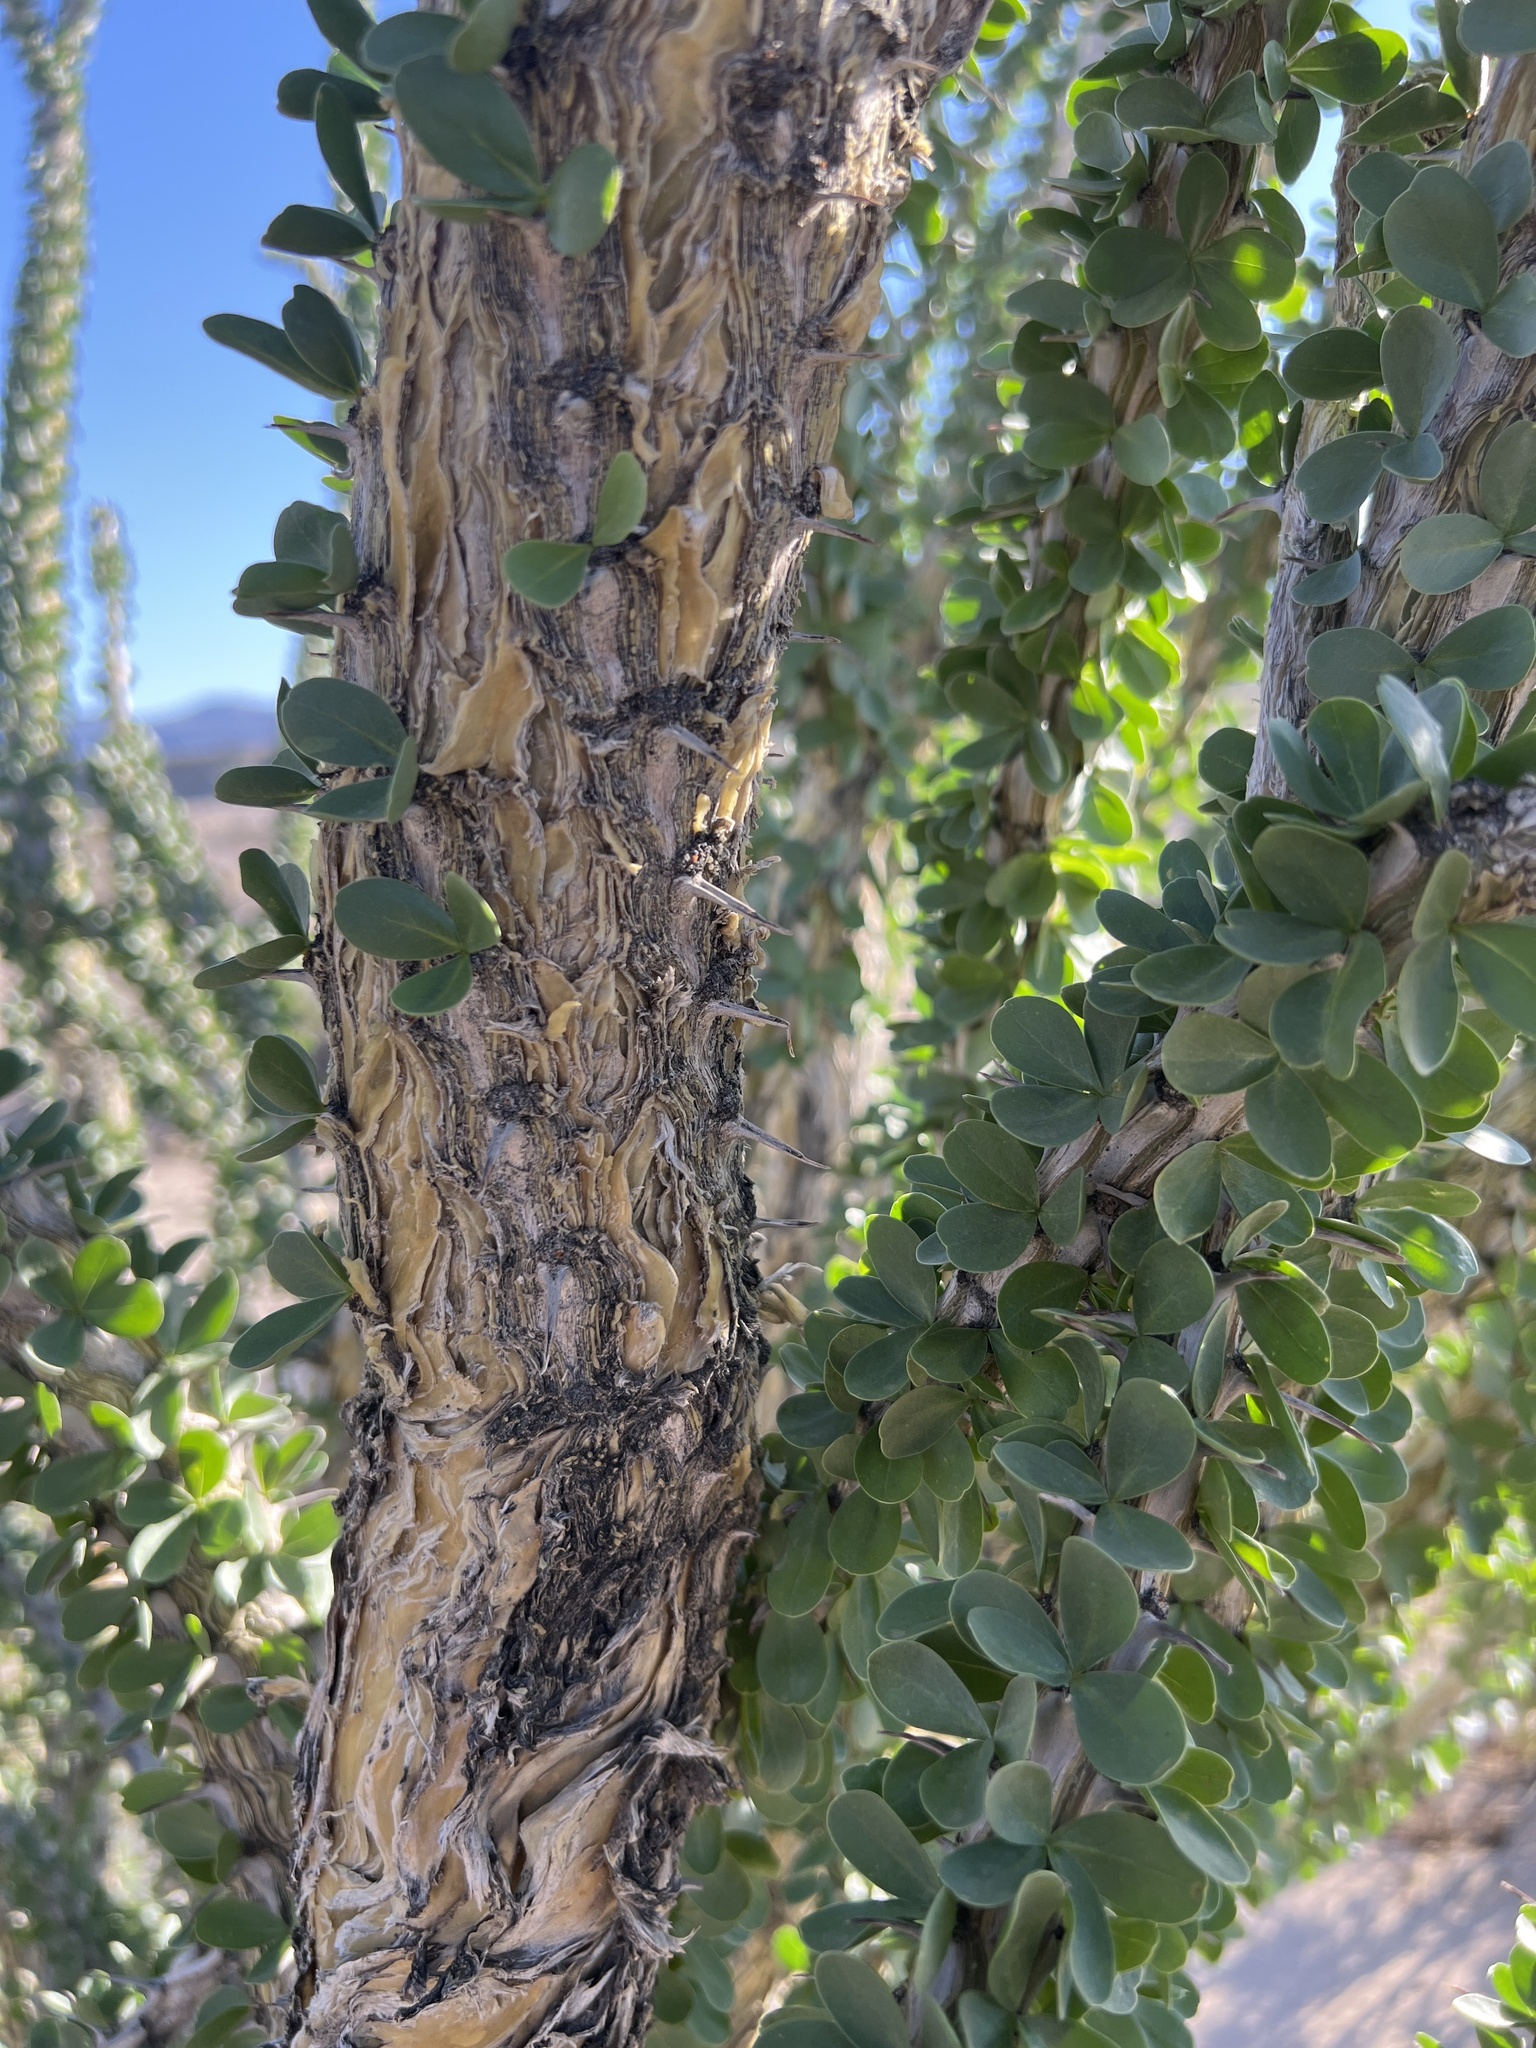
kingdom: Plantae
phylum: Tracheophyta
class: Magnoliopsida
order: Ericales
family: Fouquieriaceae
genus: Fouquieria
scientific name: Fouquieria splendens
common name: Vine-cactus
